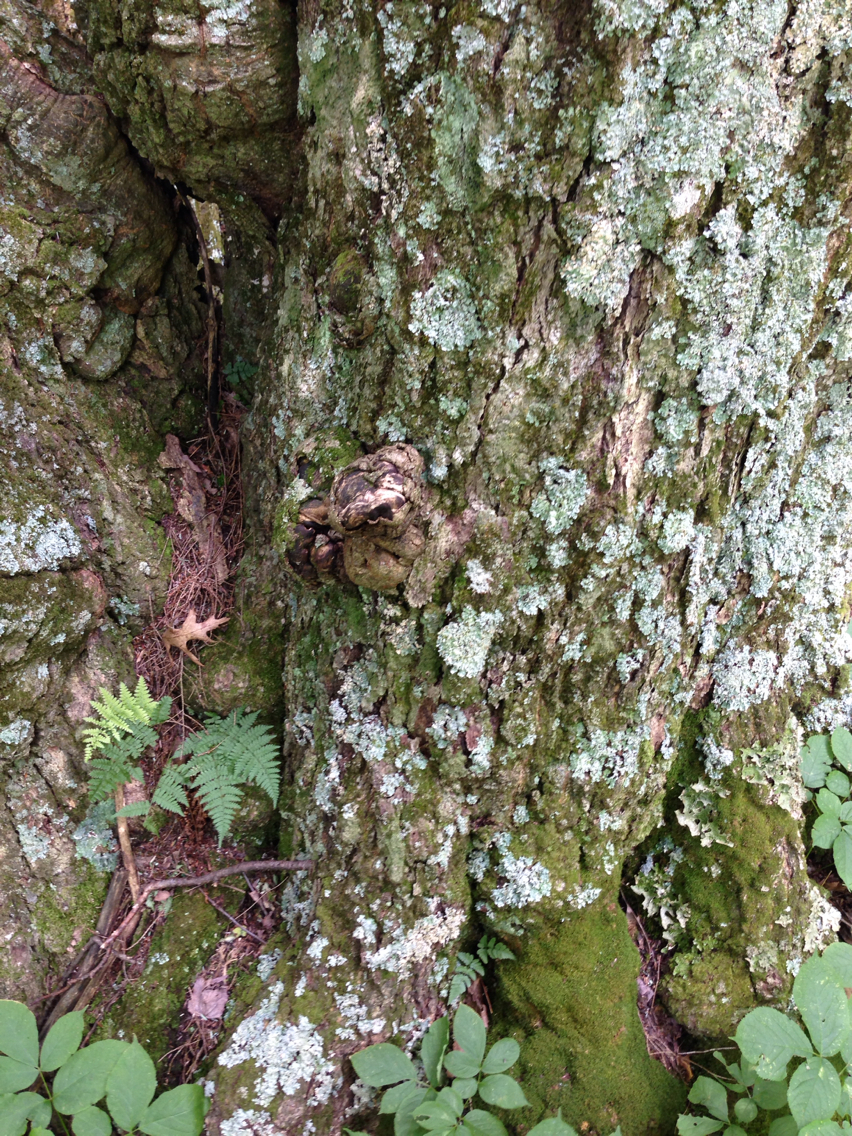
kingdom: Plantae
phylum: Tracheophyta
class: Magnoliopsida
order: Fagales
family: Fagaceae
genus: Quercus
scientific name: Quercus rubra
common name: Red oak
